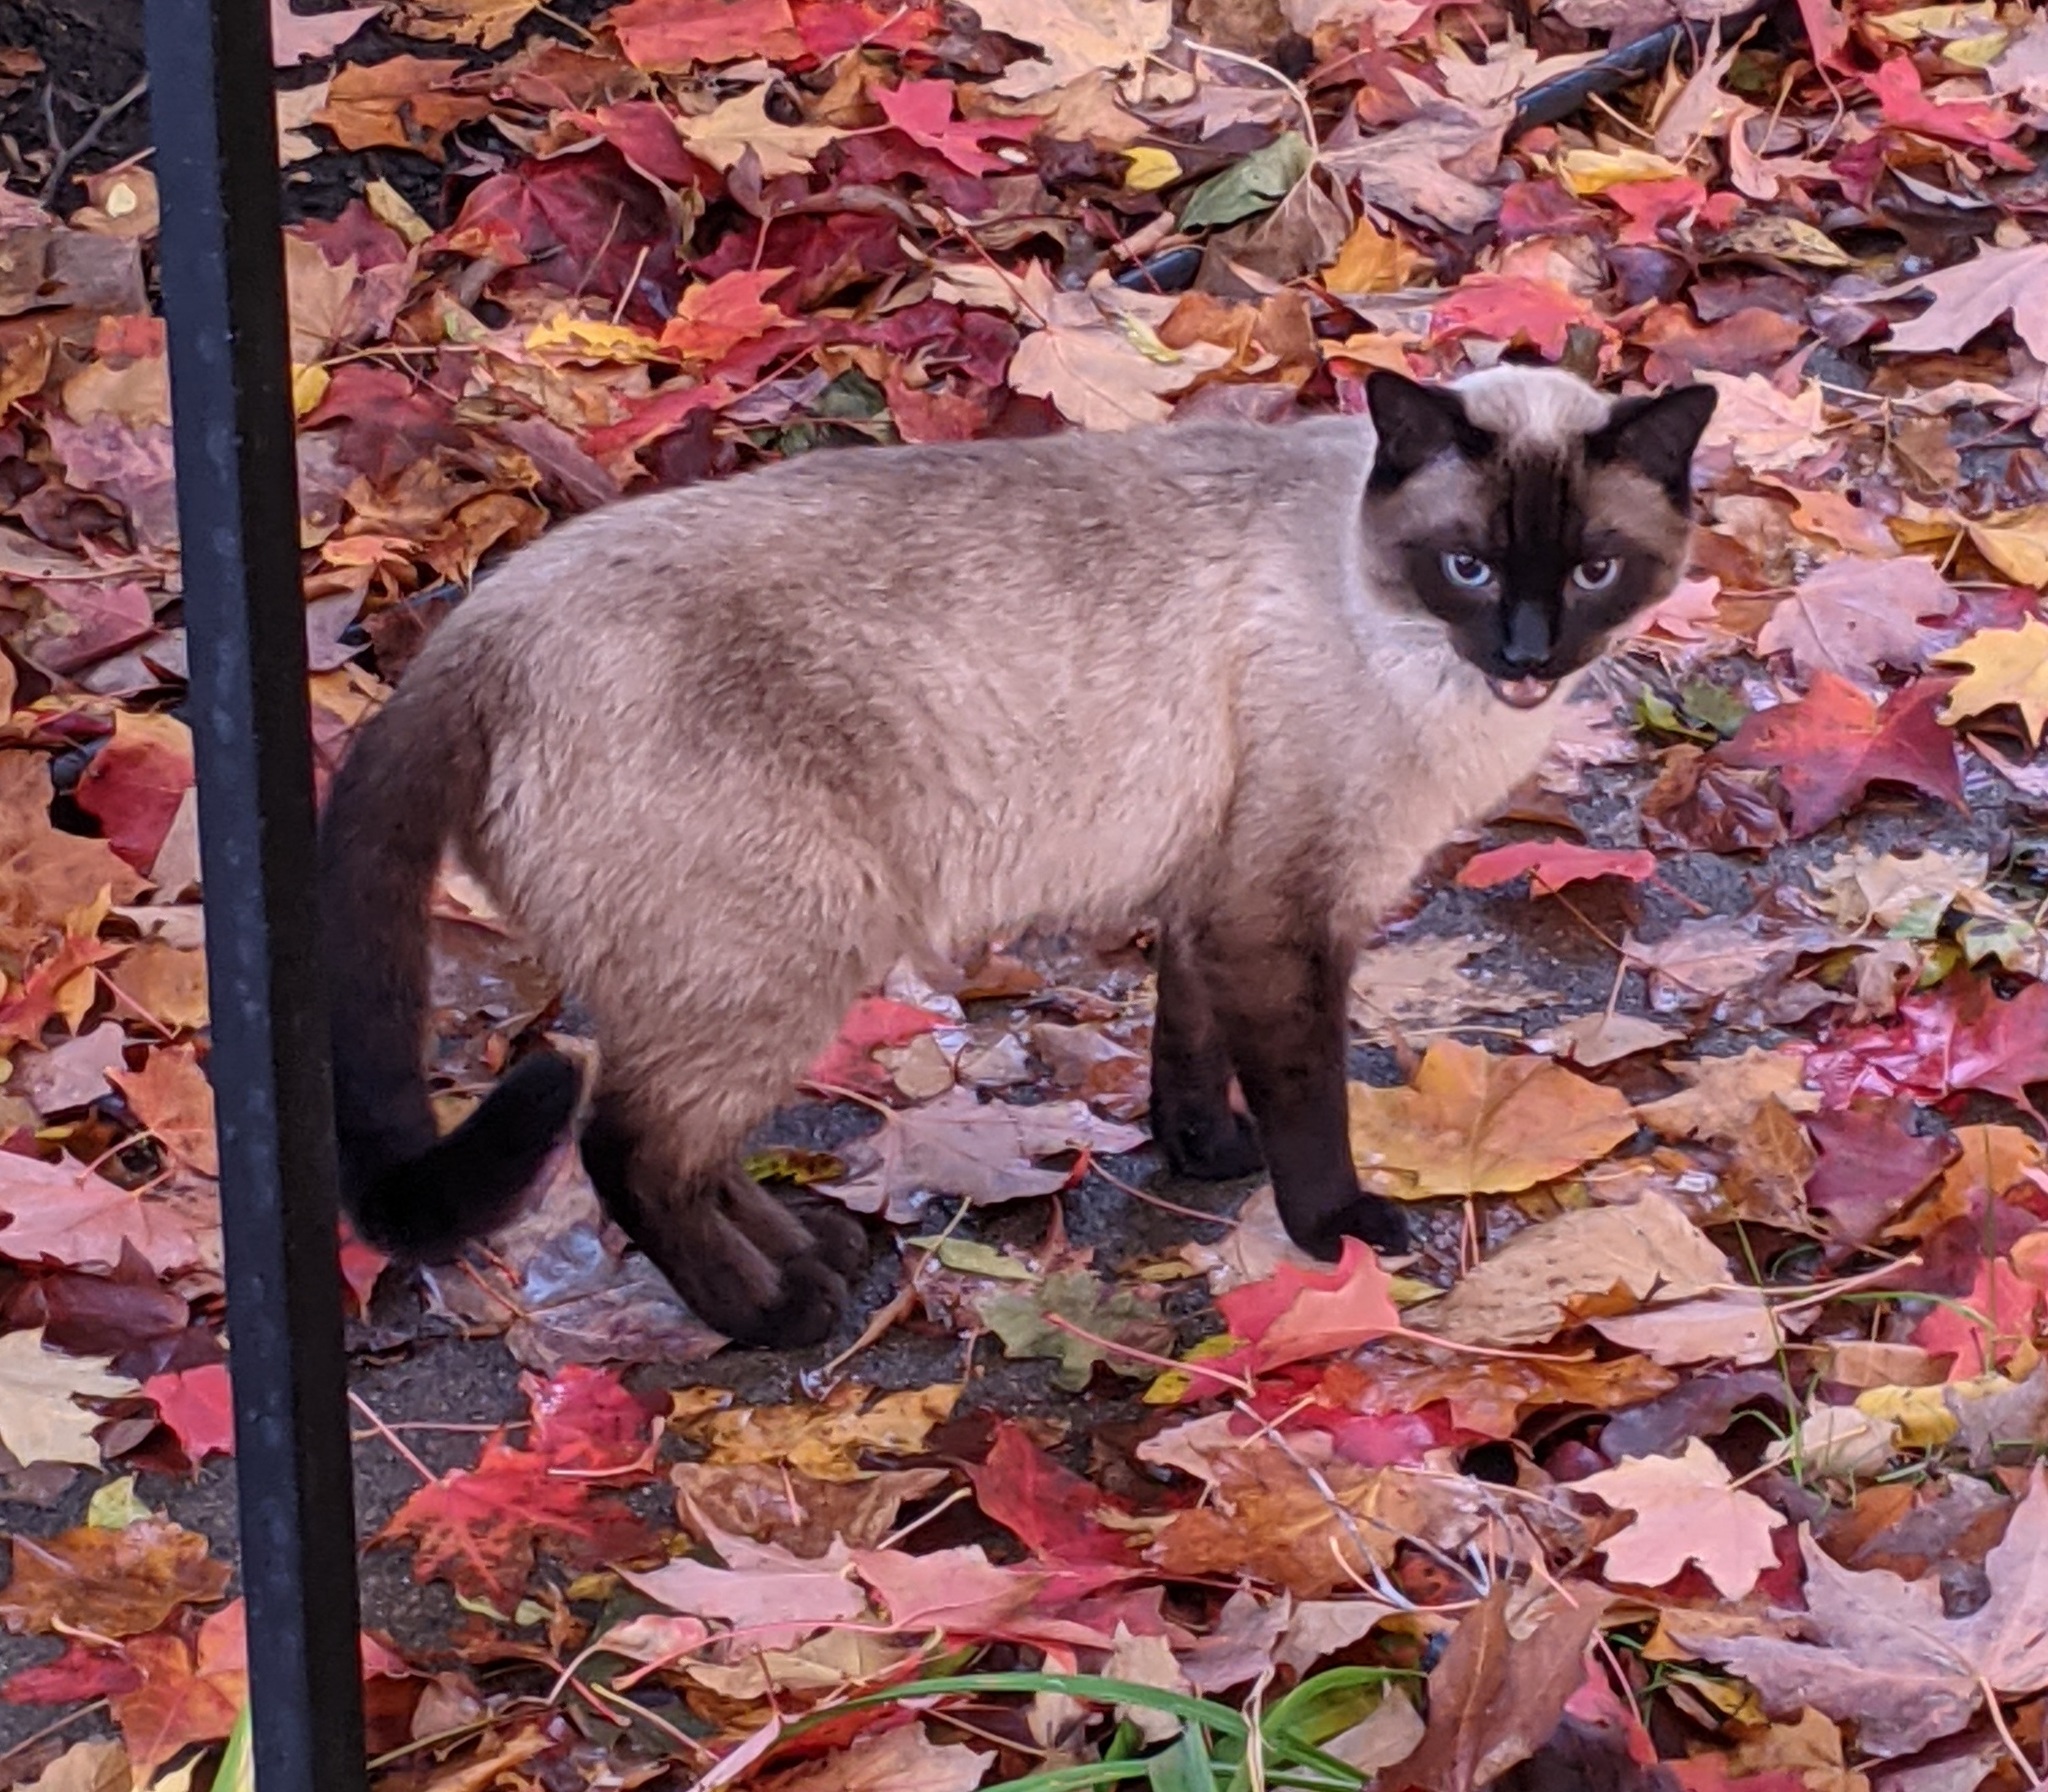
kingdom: Animalia
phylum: Chordata
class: Mammalia
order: Carnivora
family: Felidae
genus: Felis
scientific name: Felis catus
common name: Domestic cat
